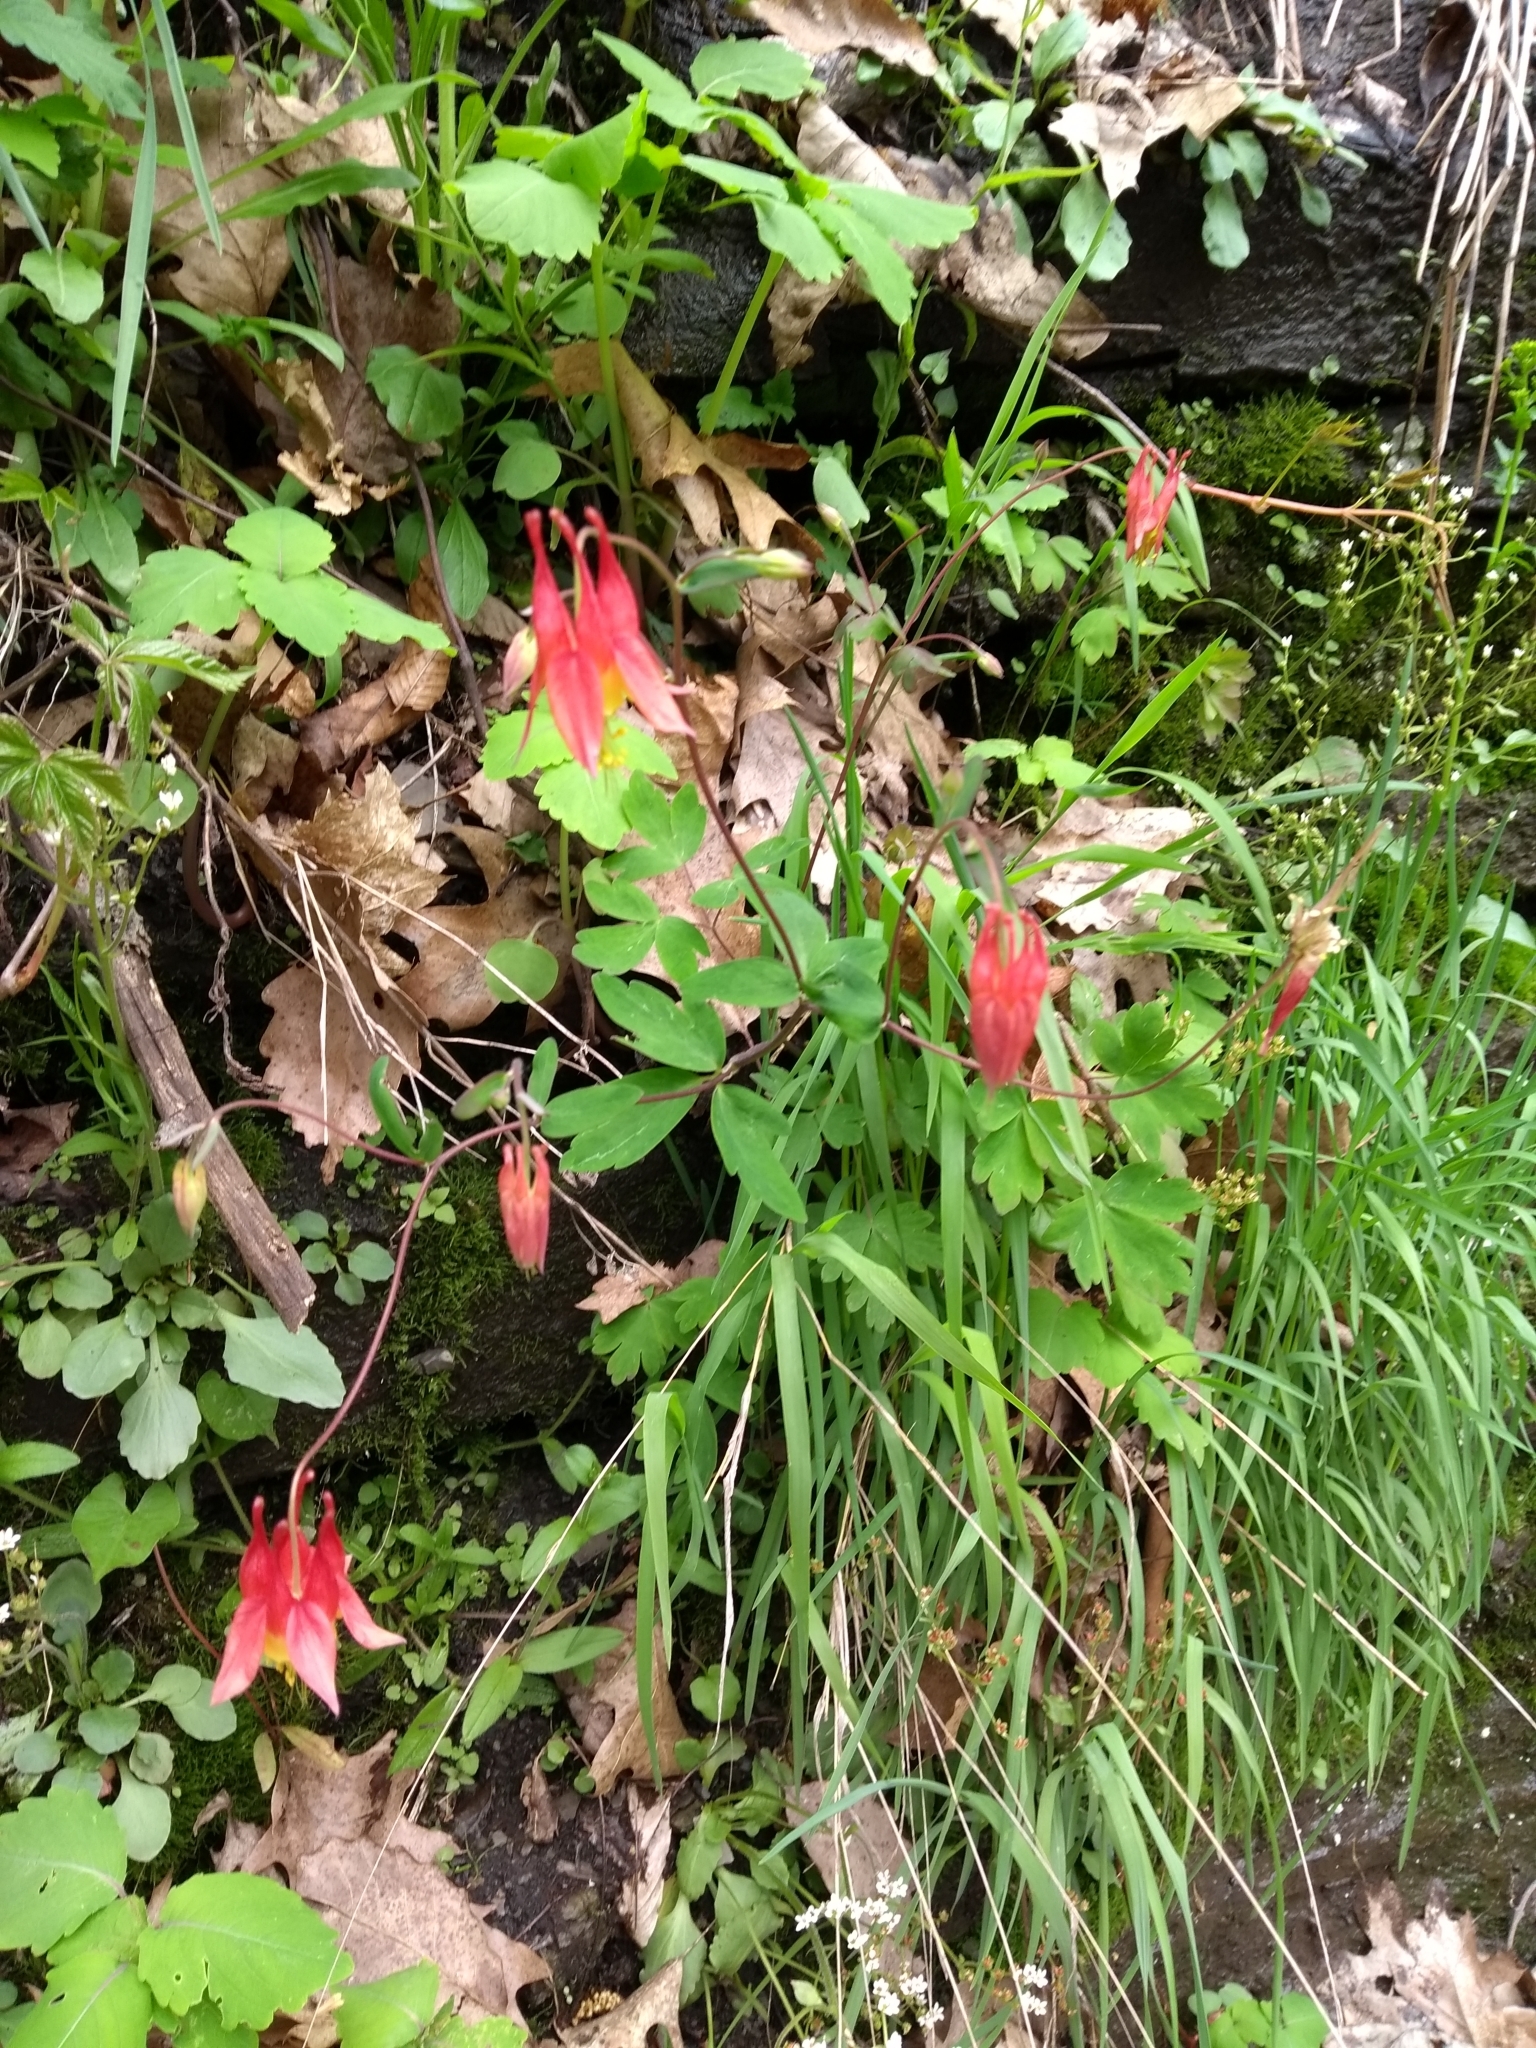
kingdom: Plantae
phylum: Tracheophyta
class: Magnoliopsida
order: Ranunculales
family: Ranunculaceae
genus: Aquilegia
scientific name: Aquilegia canadensis
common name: American columbine
